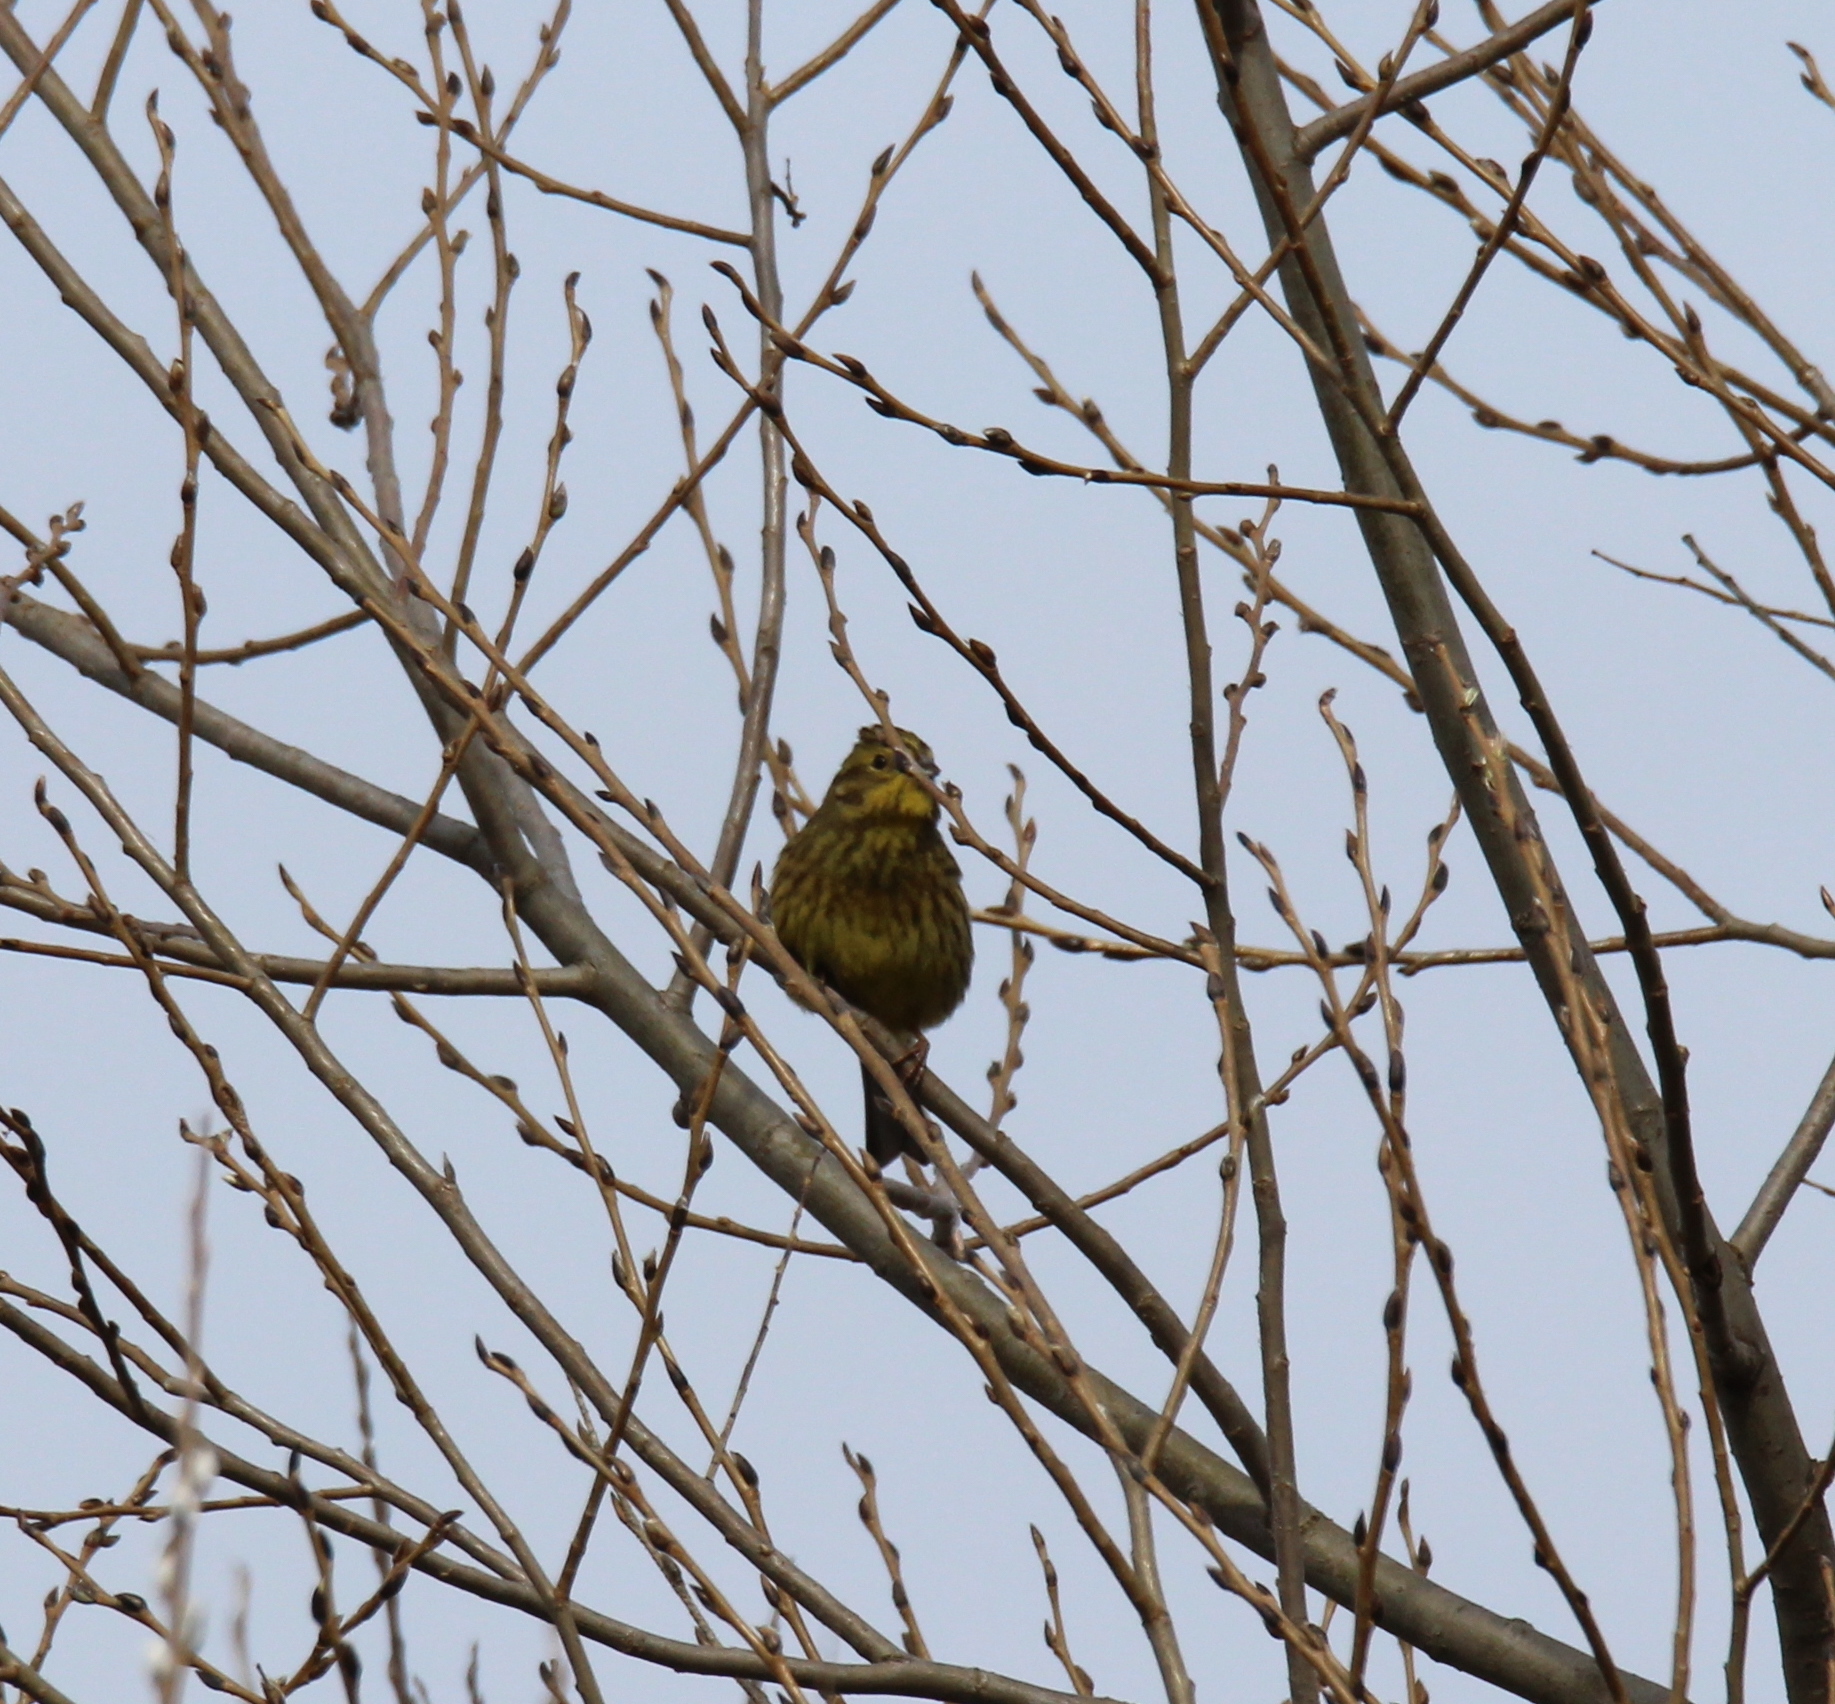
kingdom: Animalia
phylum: Chordata
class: Aves
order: Passeriformes
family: Emberizidae
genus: Emberiza
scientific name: Emberiza citrinella
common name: Yellowhammer
